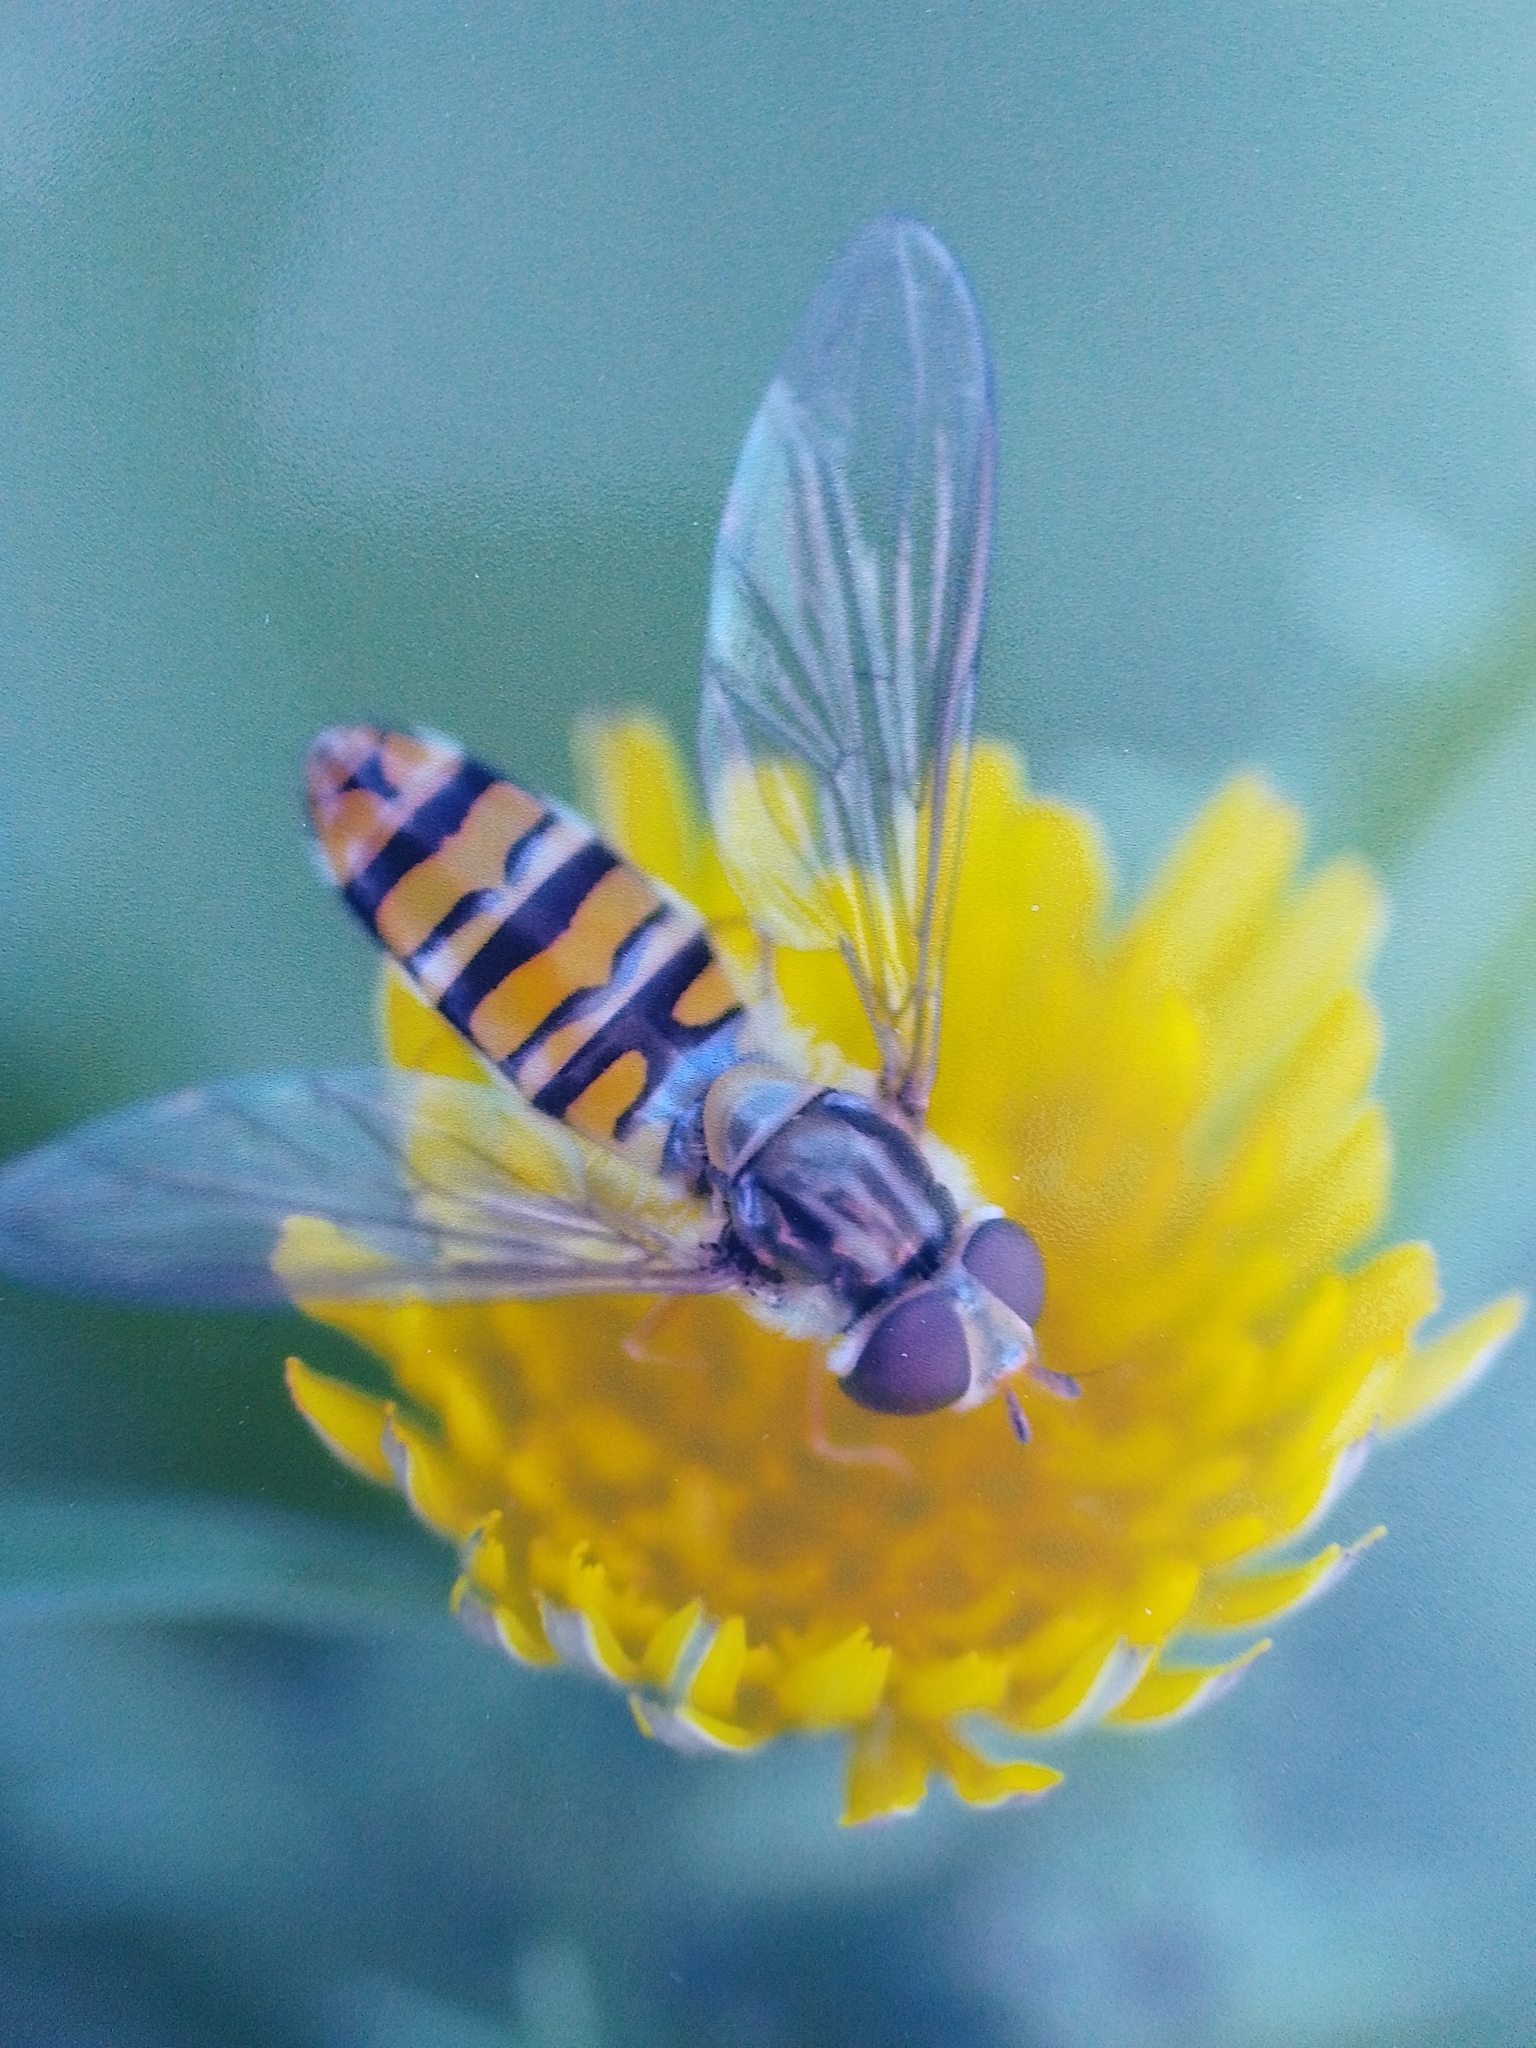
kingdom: Animalia
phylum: Arthropoda
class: Insecta
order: Diptera
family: Syrphidae
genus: Episyrphus
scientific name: Episyrphus balteatus
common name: Marmalade hoverfly
